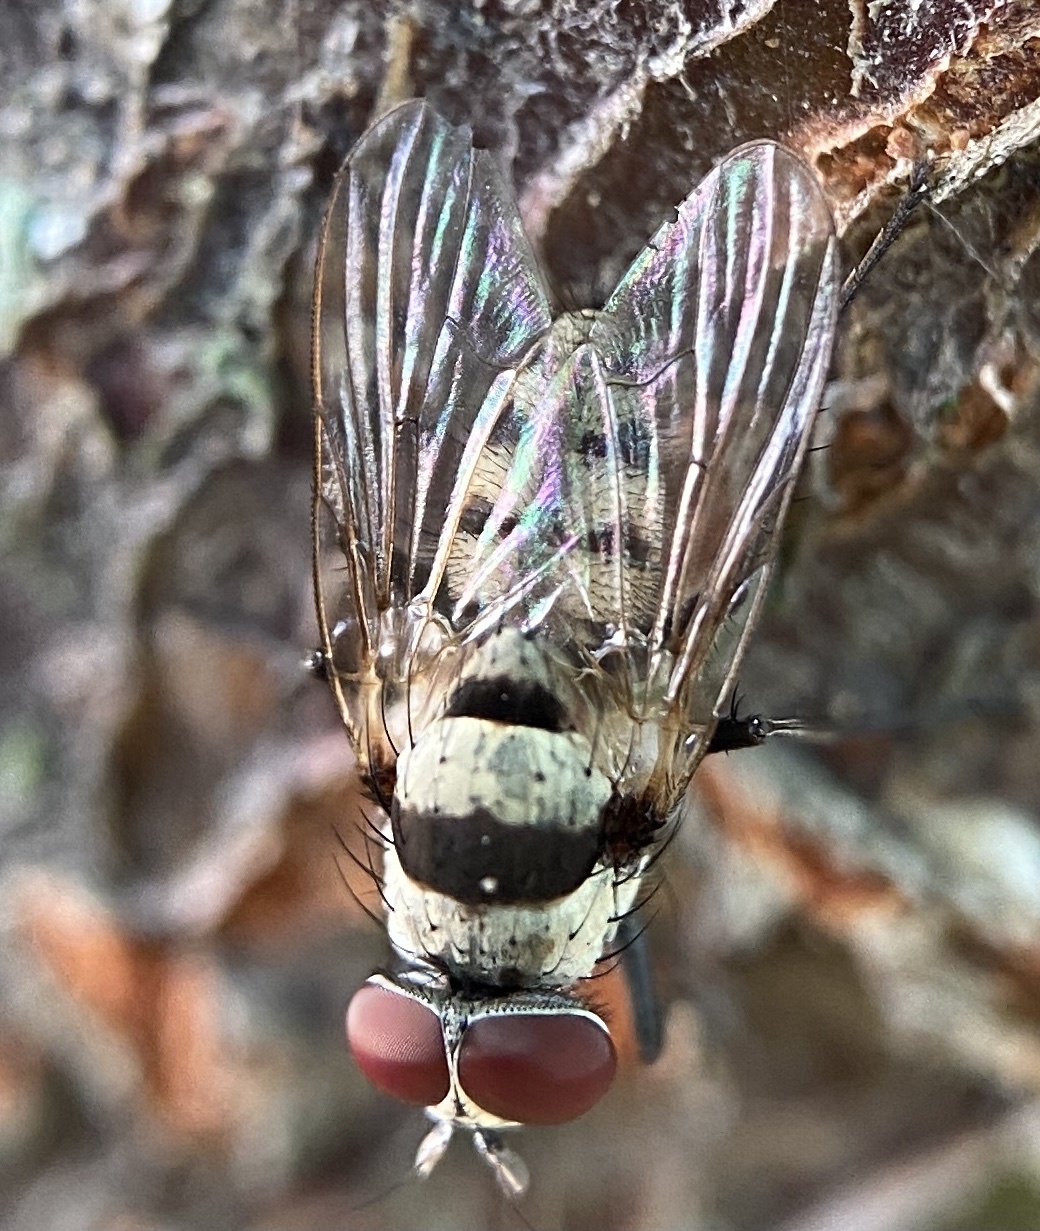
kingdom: Animalia
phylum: Arthropoda
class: Insecta
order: Diptera
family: Anthomyiidae
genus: Anthomyia
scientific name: Anthomyia illocata
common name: Fly
